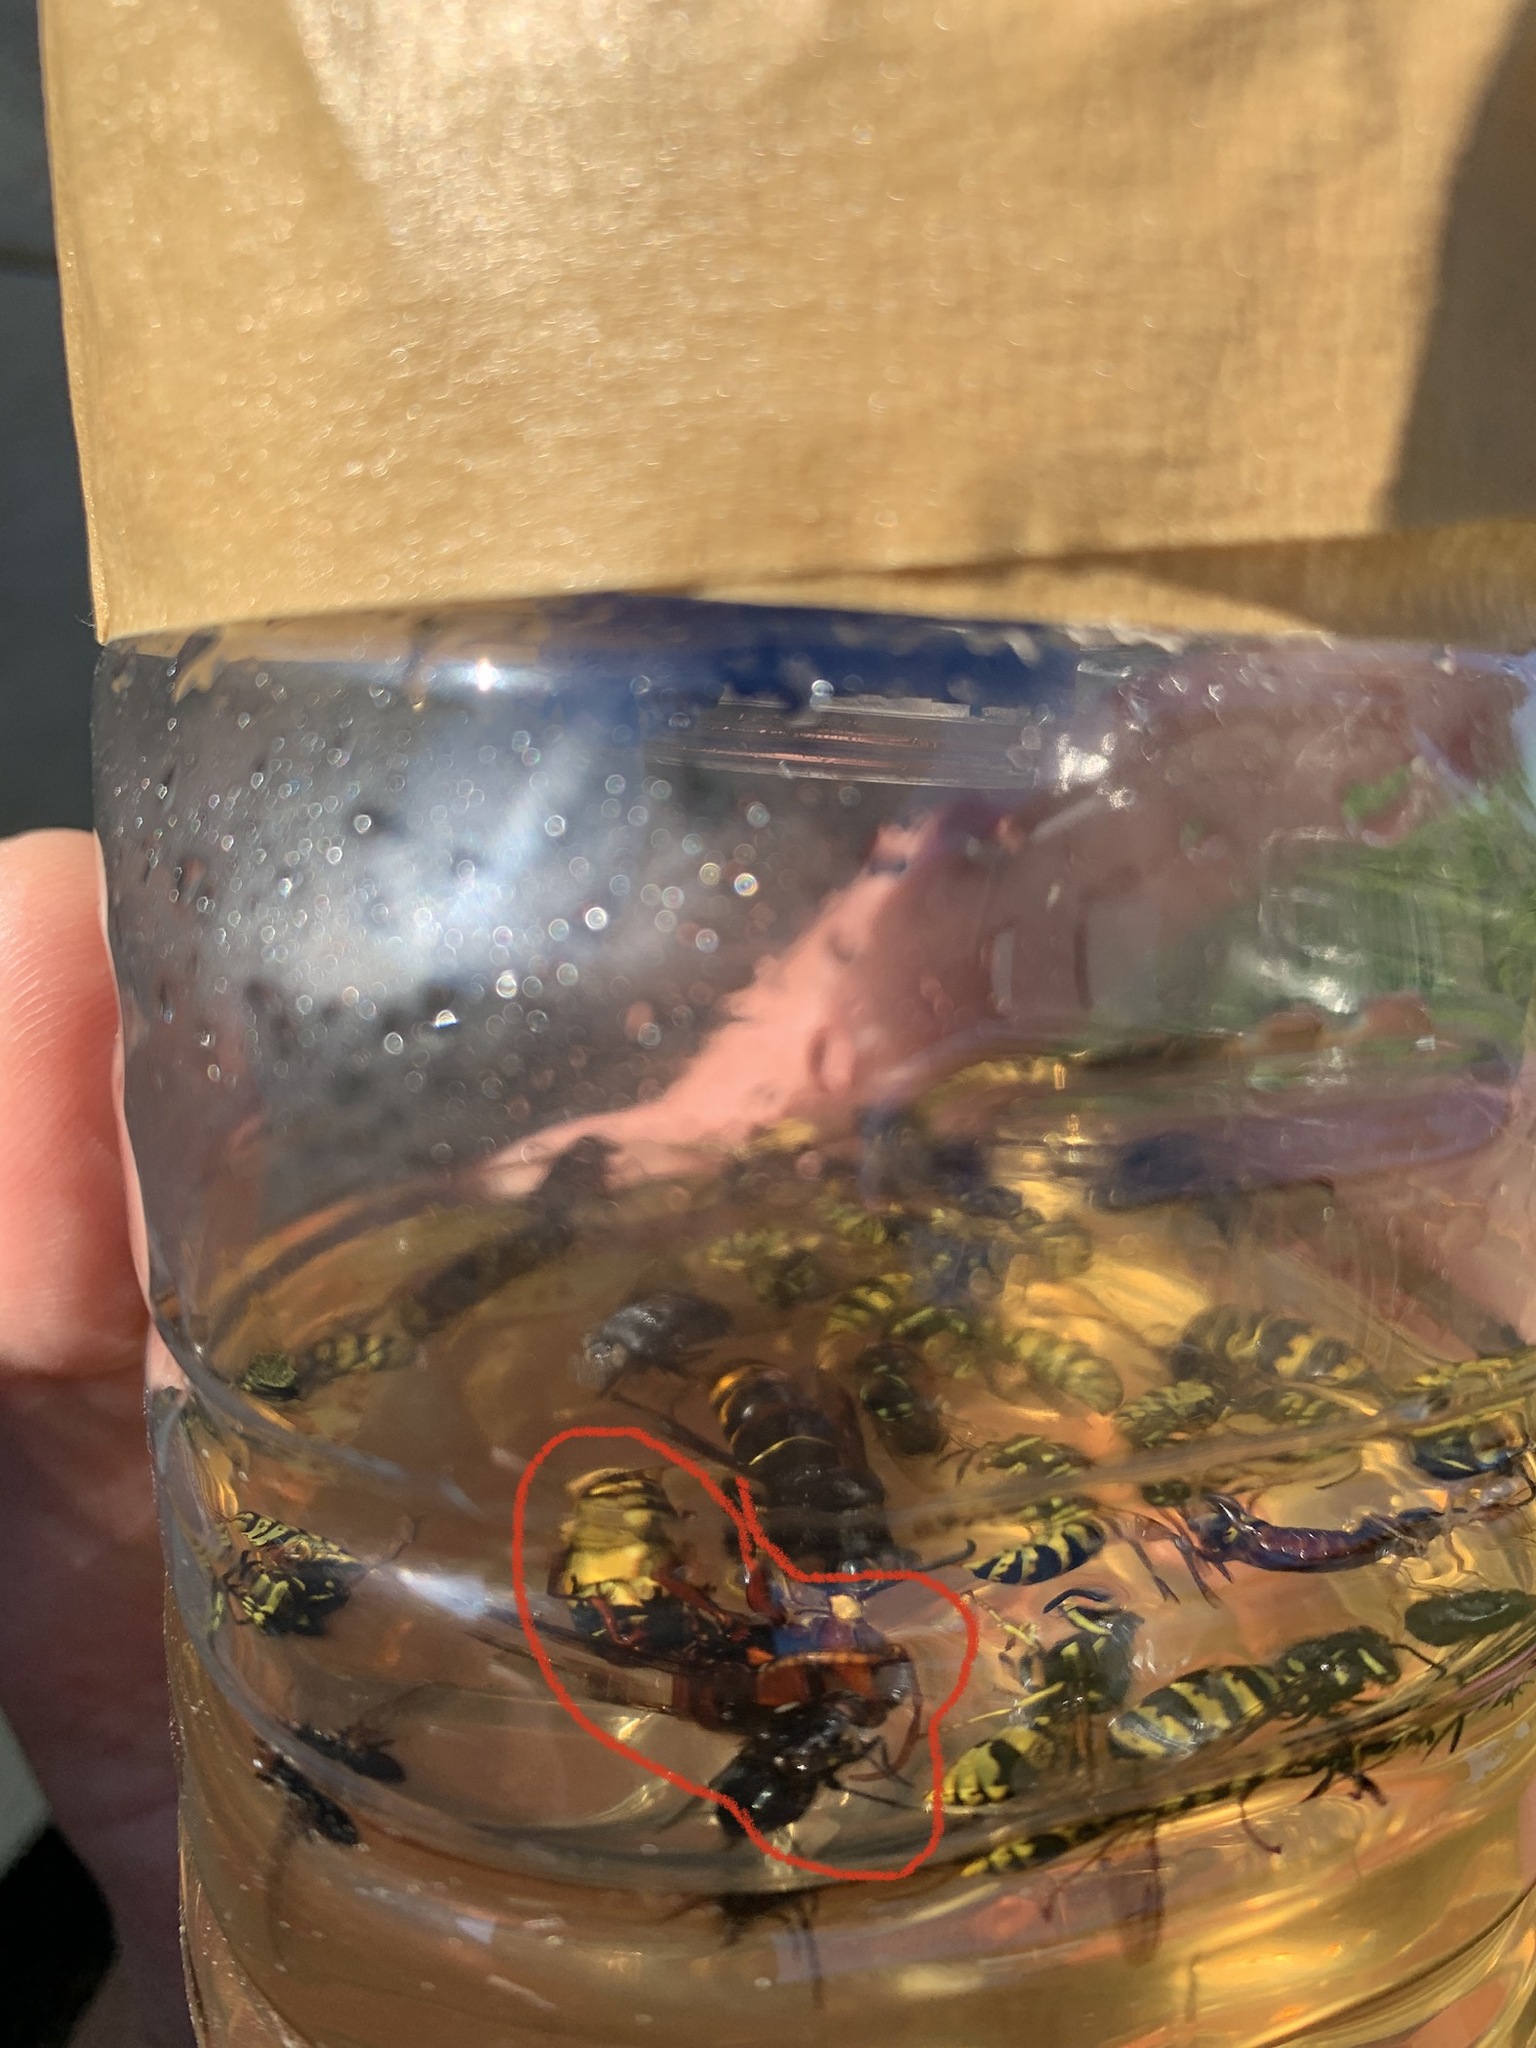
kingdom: Animalia
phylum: Arthropoda
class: Insecta
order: Hymenoptera
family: Vespidae
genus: Vespa
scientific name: Vespa velutina
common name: Asian hornet
